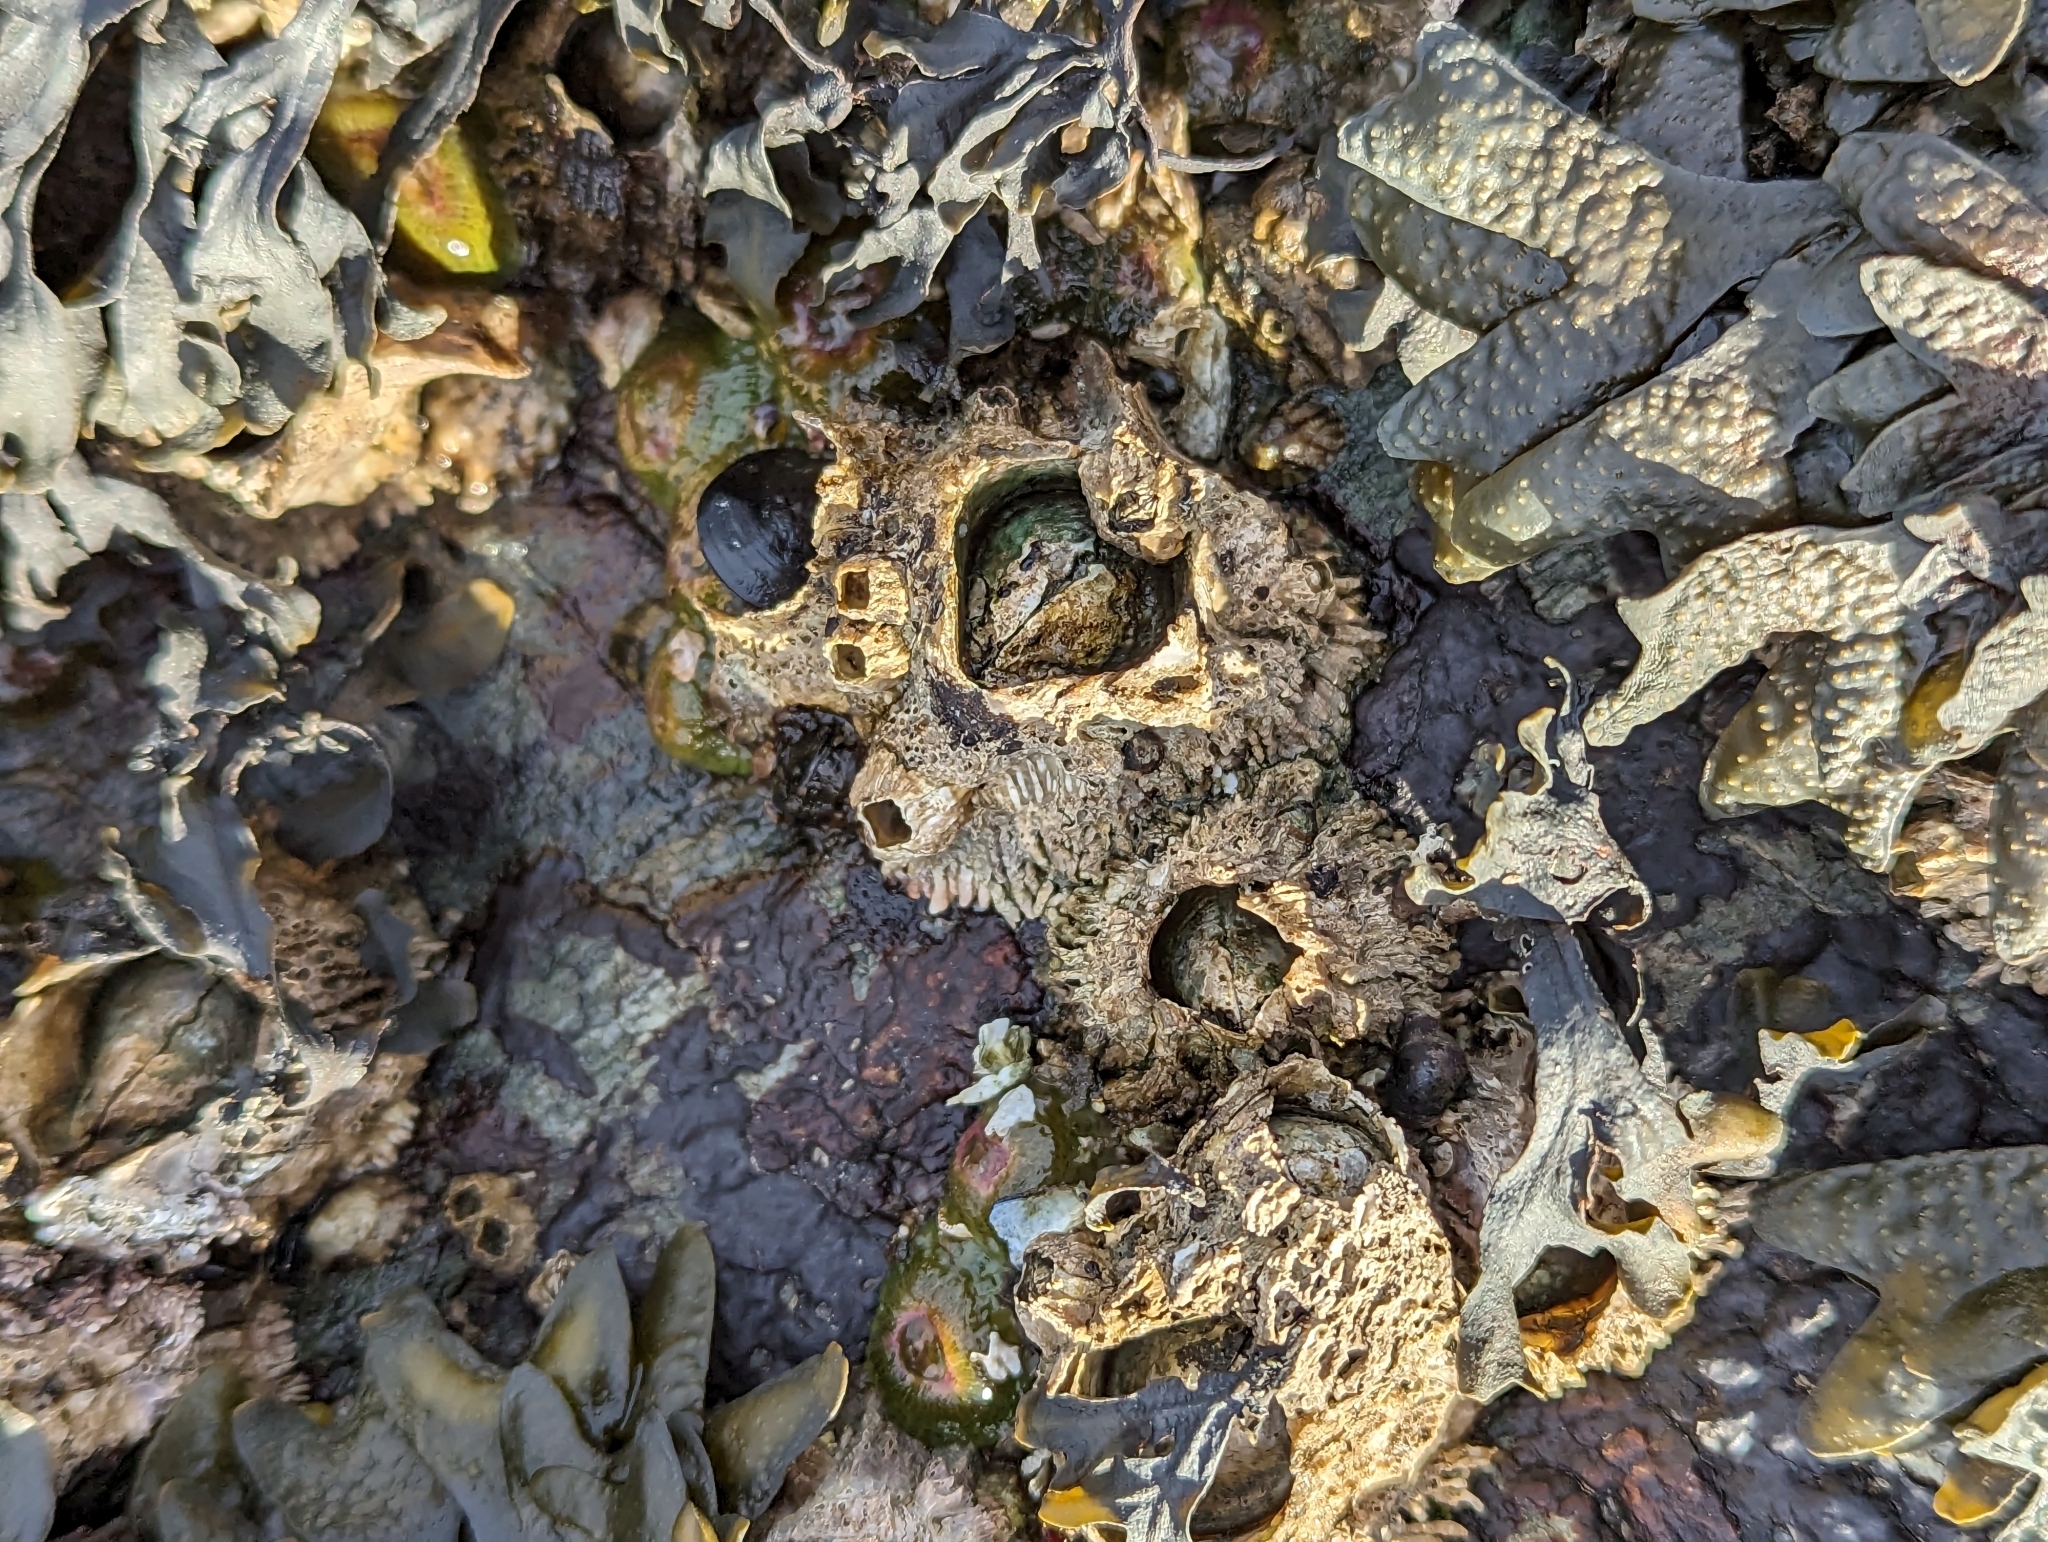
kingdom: Animalia
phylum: Arthropoda
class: Maxillopoda
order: Sessilia
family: Archaeobalanidae
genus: Semibalanus
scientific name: Semibalanus cariosus
